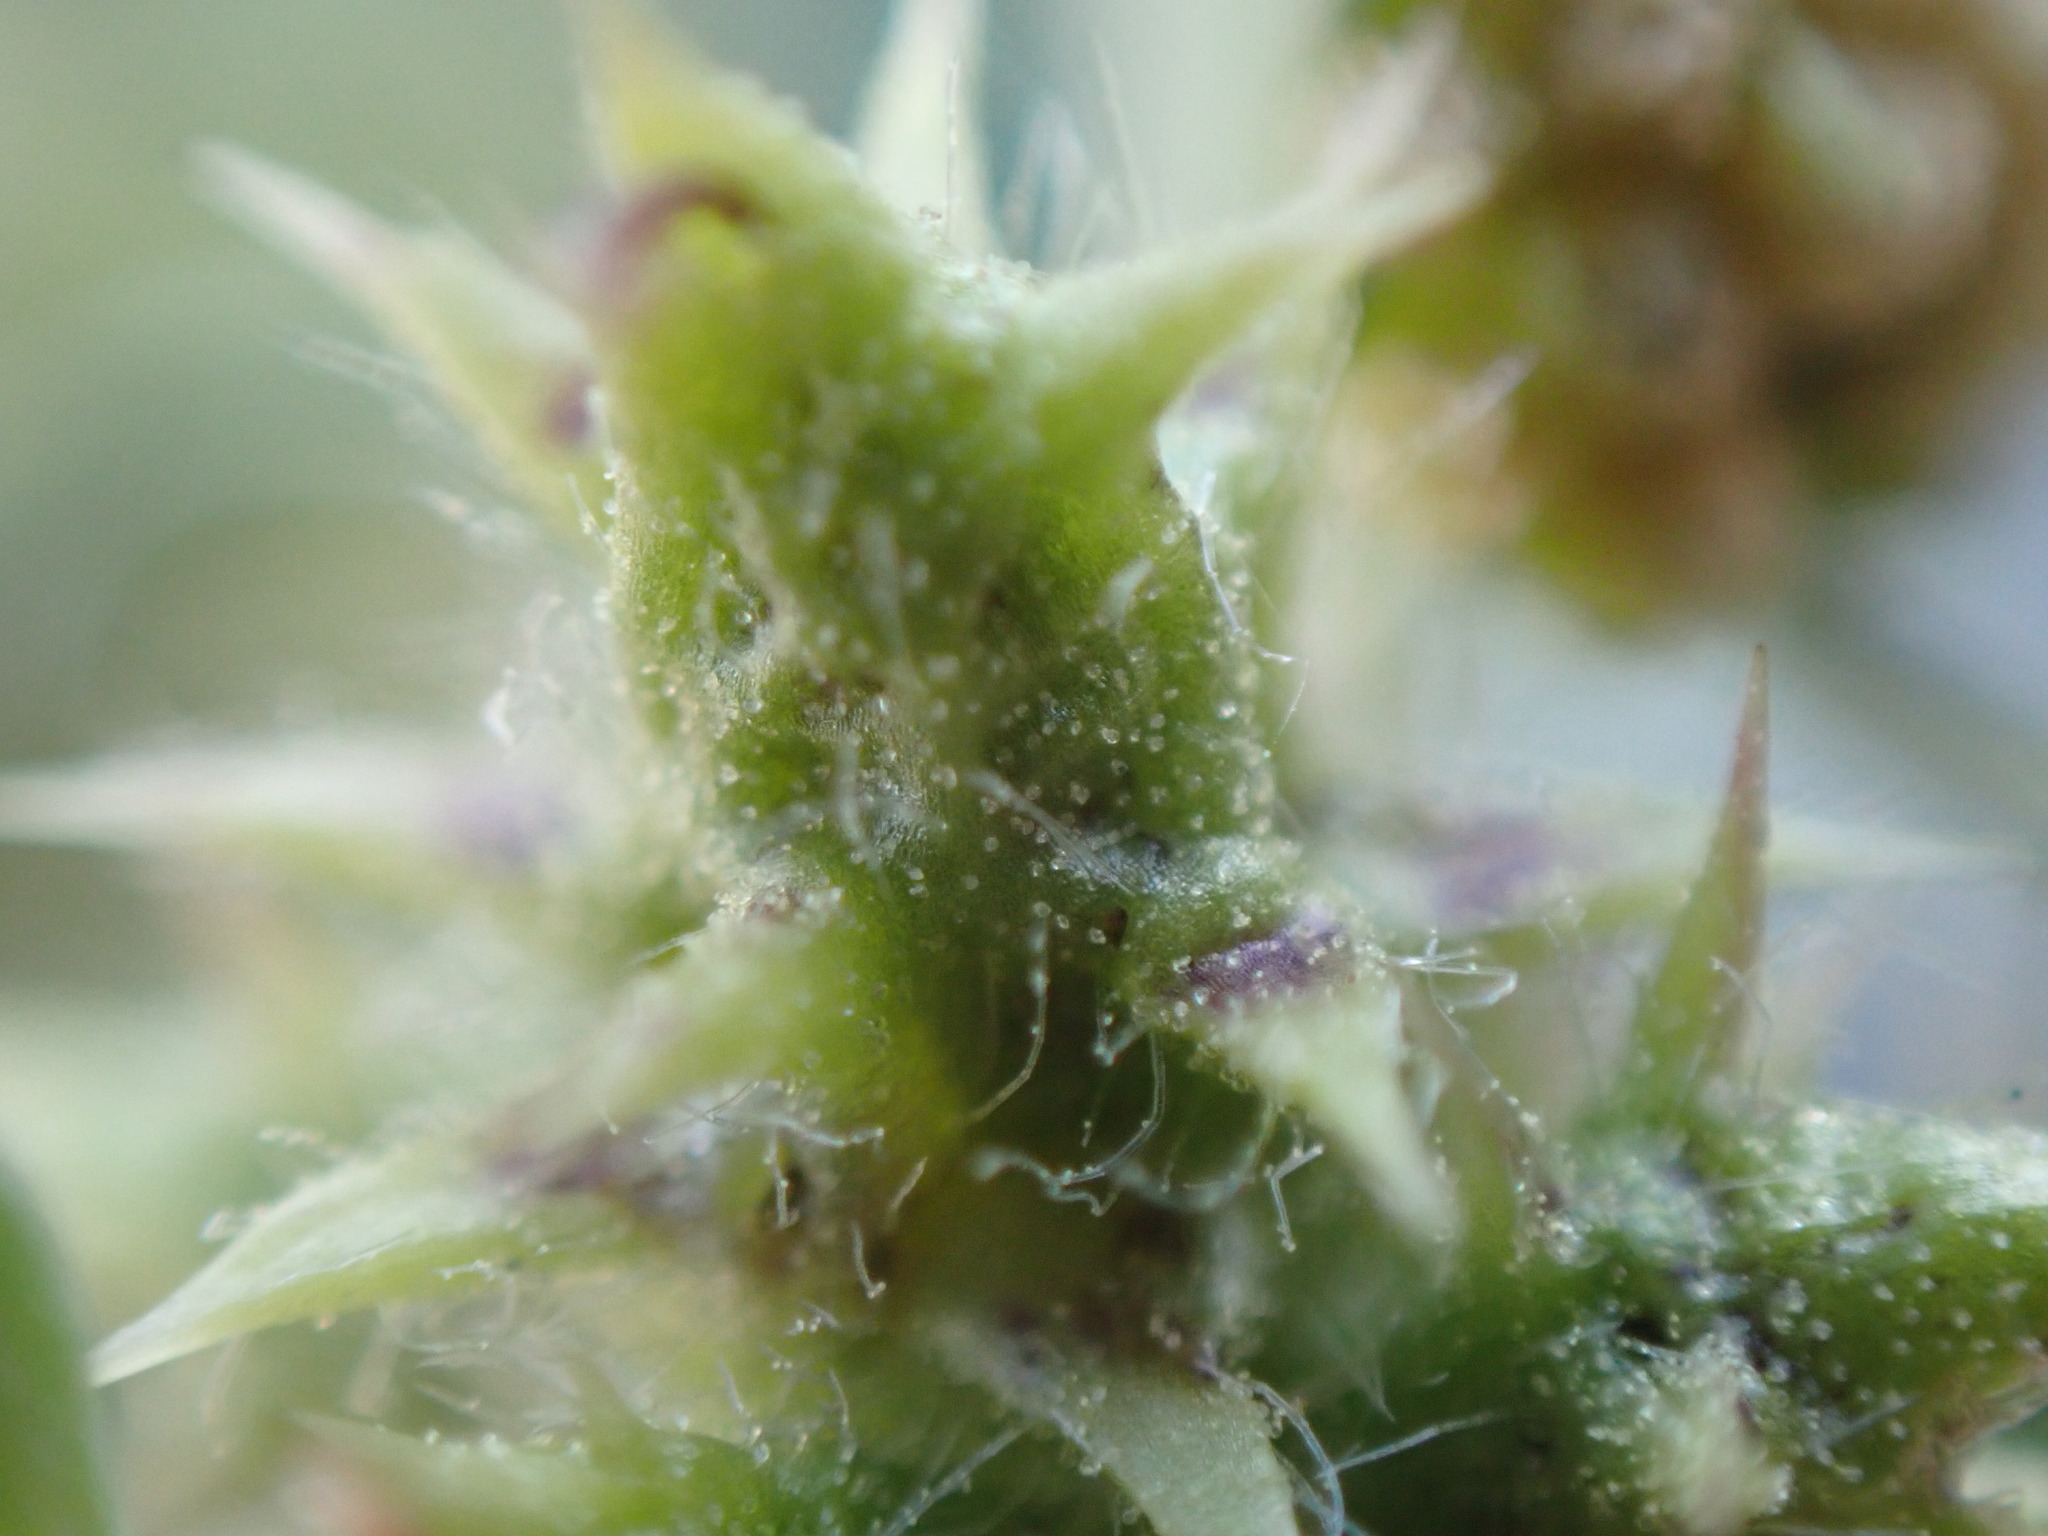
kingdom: Plantae
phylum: Tracheophyta
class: Magnoliopsida
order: Asterales
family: Asteraceae
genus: Ambrosia
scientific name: Ambrosia chamissonis
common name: Beachbur
